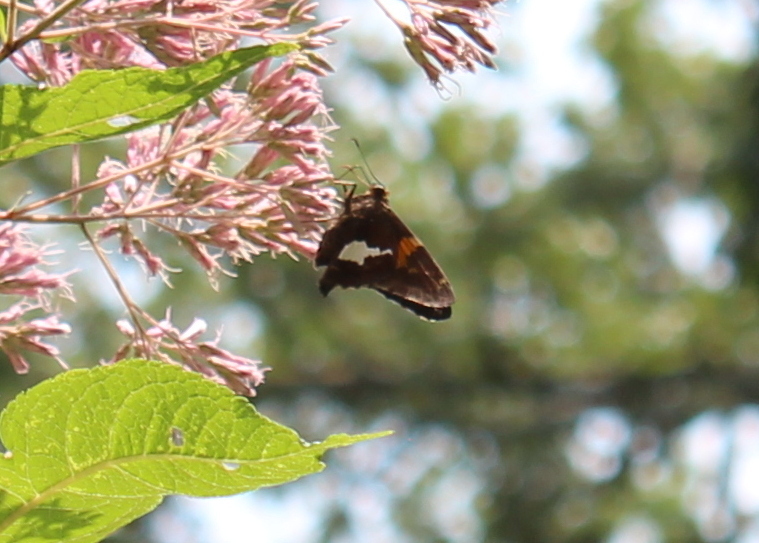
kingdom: Animalia
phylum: Arthropoda
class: Insecta
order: Lepidoptera
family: Hesperiidae
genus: Epargyreus
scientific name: Epargyreus clarus
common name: Silver-spotted skipper
